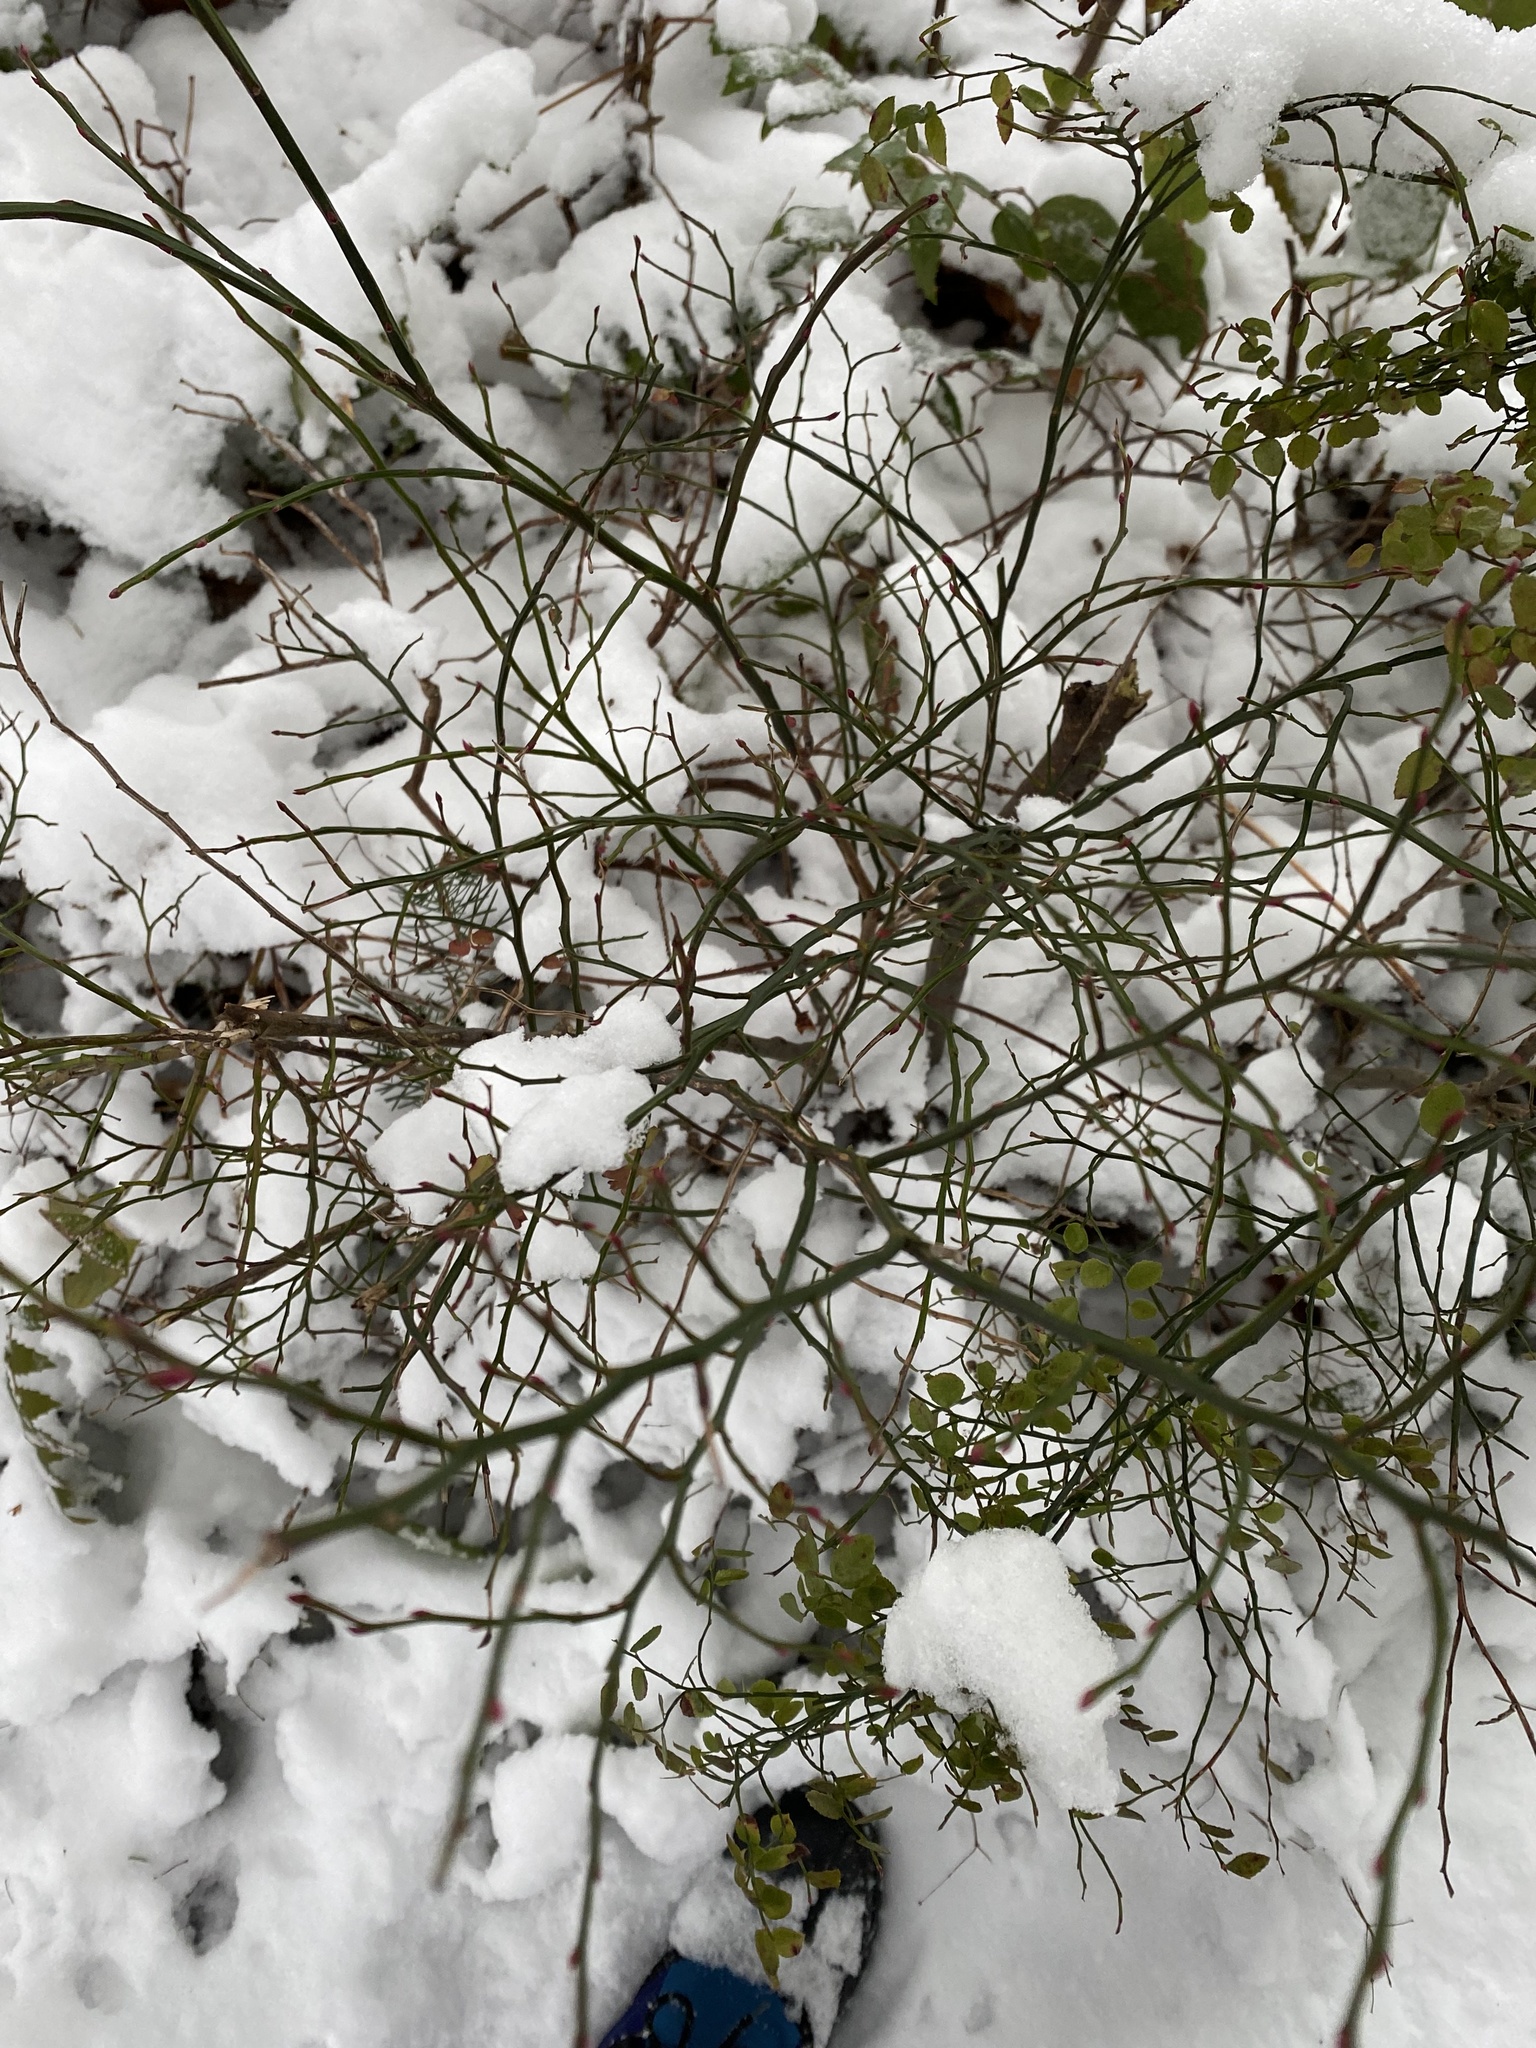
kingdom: Plantae
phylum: Tracheophyta
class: Magnoliopsida
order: Ericales
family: Ericaceae
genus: Vaccinium
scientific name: Vaccinium parvifolium
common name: Red-huckleberry
